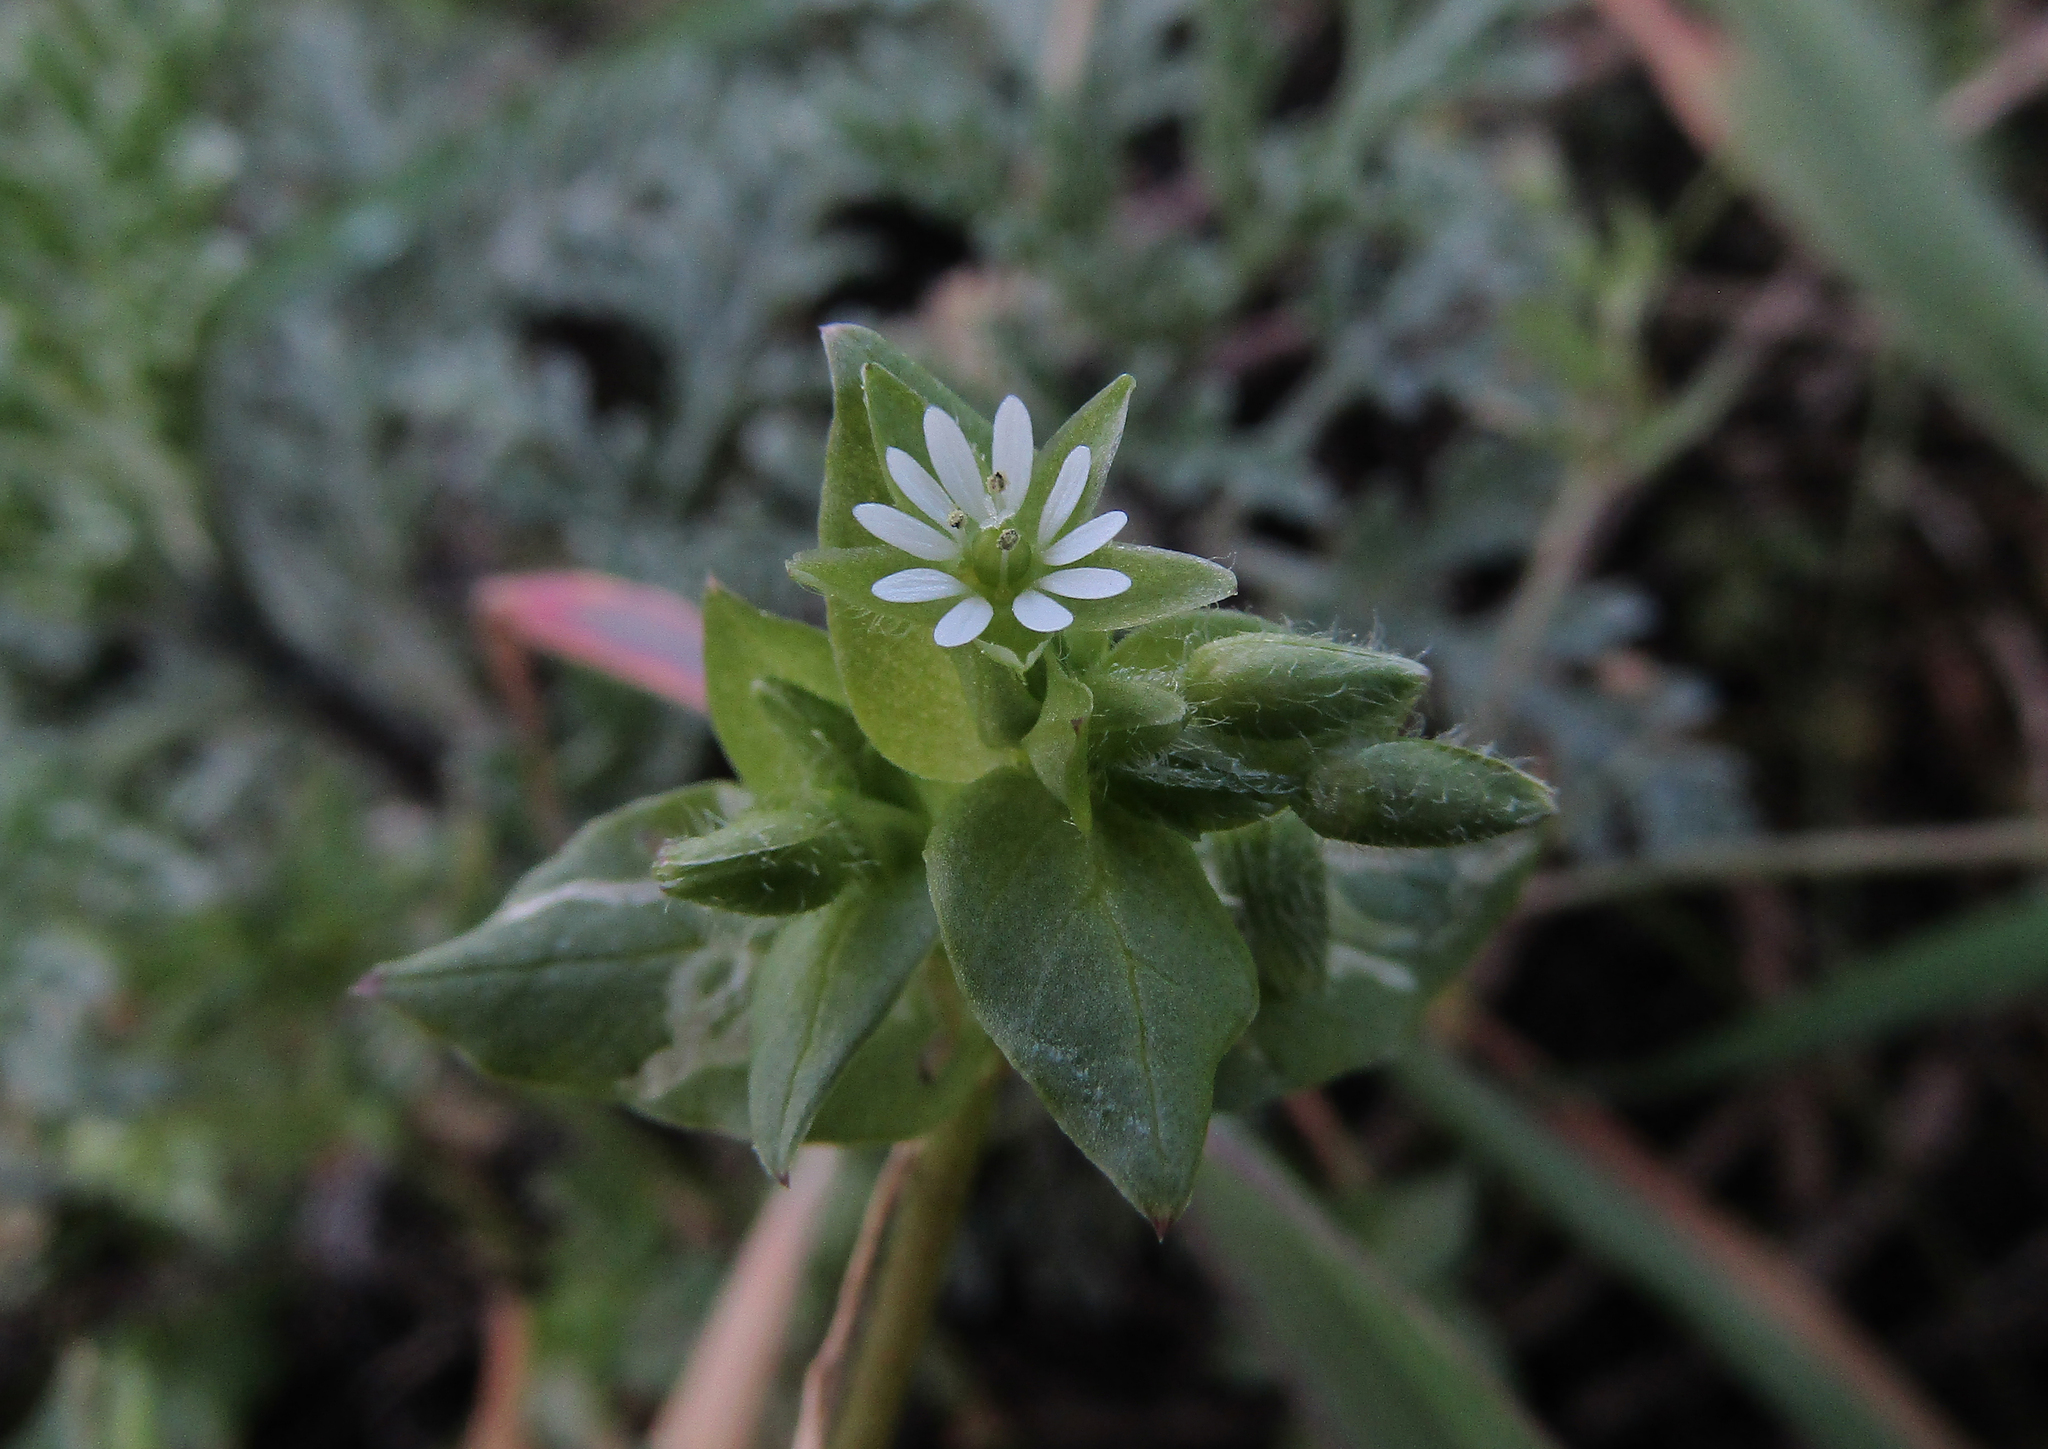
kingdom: Plantae
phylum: Tracheophyta
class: Magnoliopsida
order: Caryophyllales
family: Caryophyllaceae
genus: Stellaria
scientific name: Stellaria media
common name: Common chickweed
